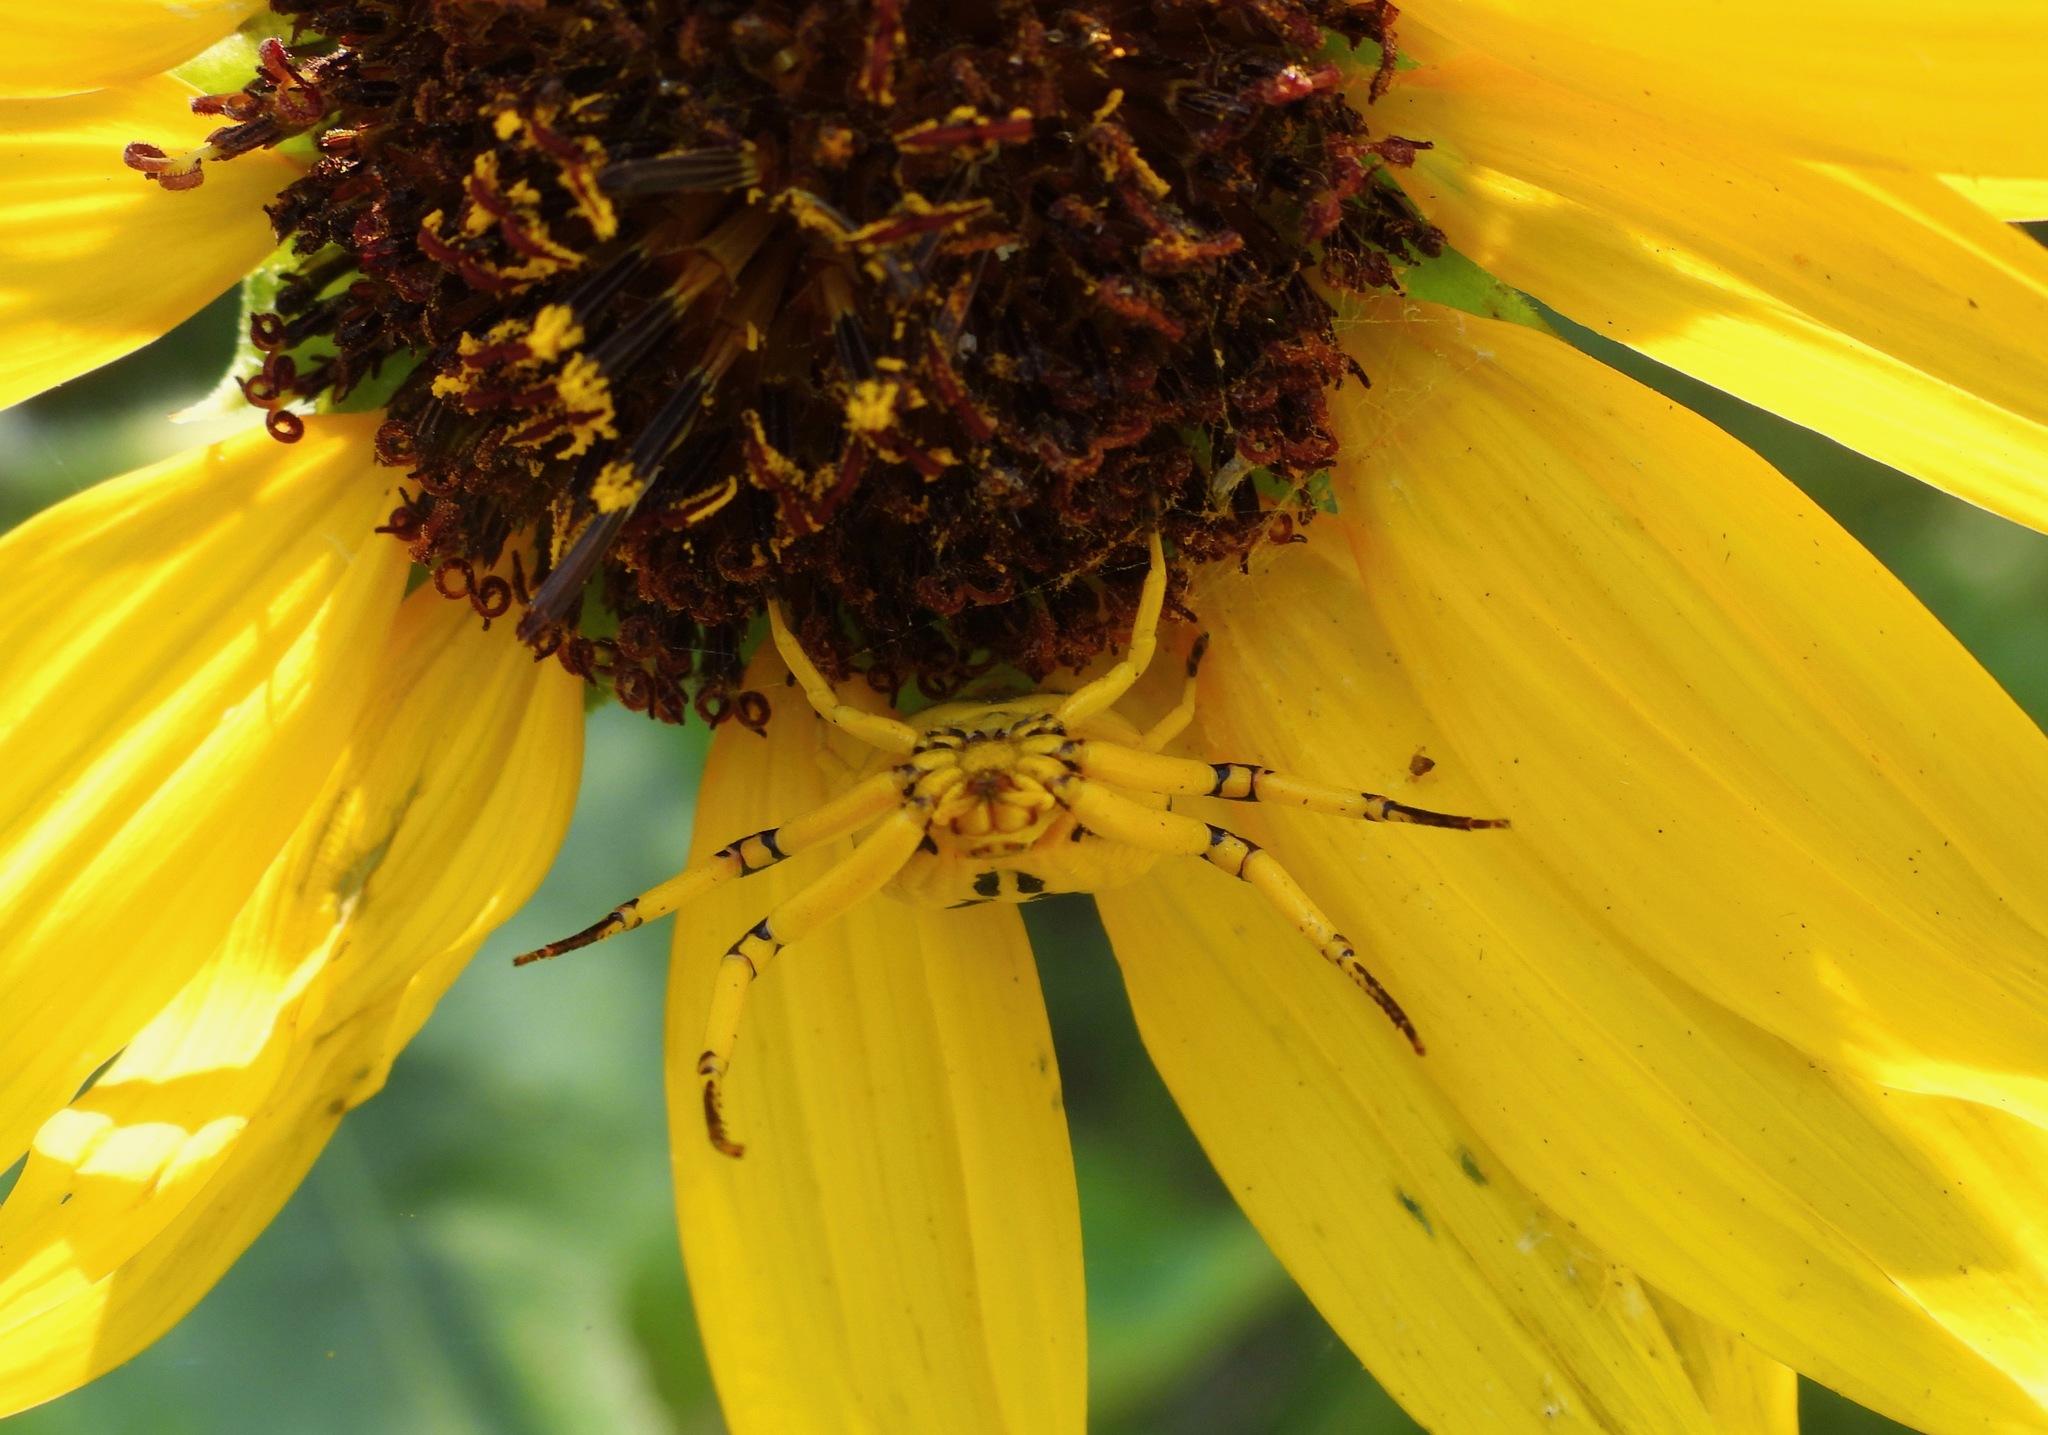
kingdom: Animalia
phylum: Arthropoda
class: Arachnida
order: Araneae
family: Thomisidae
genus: Misumenoides
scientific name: Misumenoides formosipes
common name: White-banded crab spider
